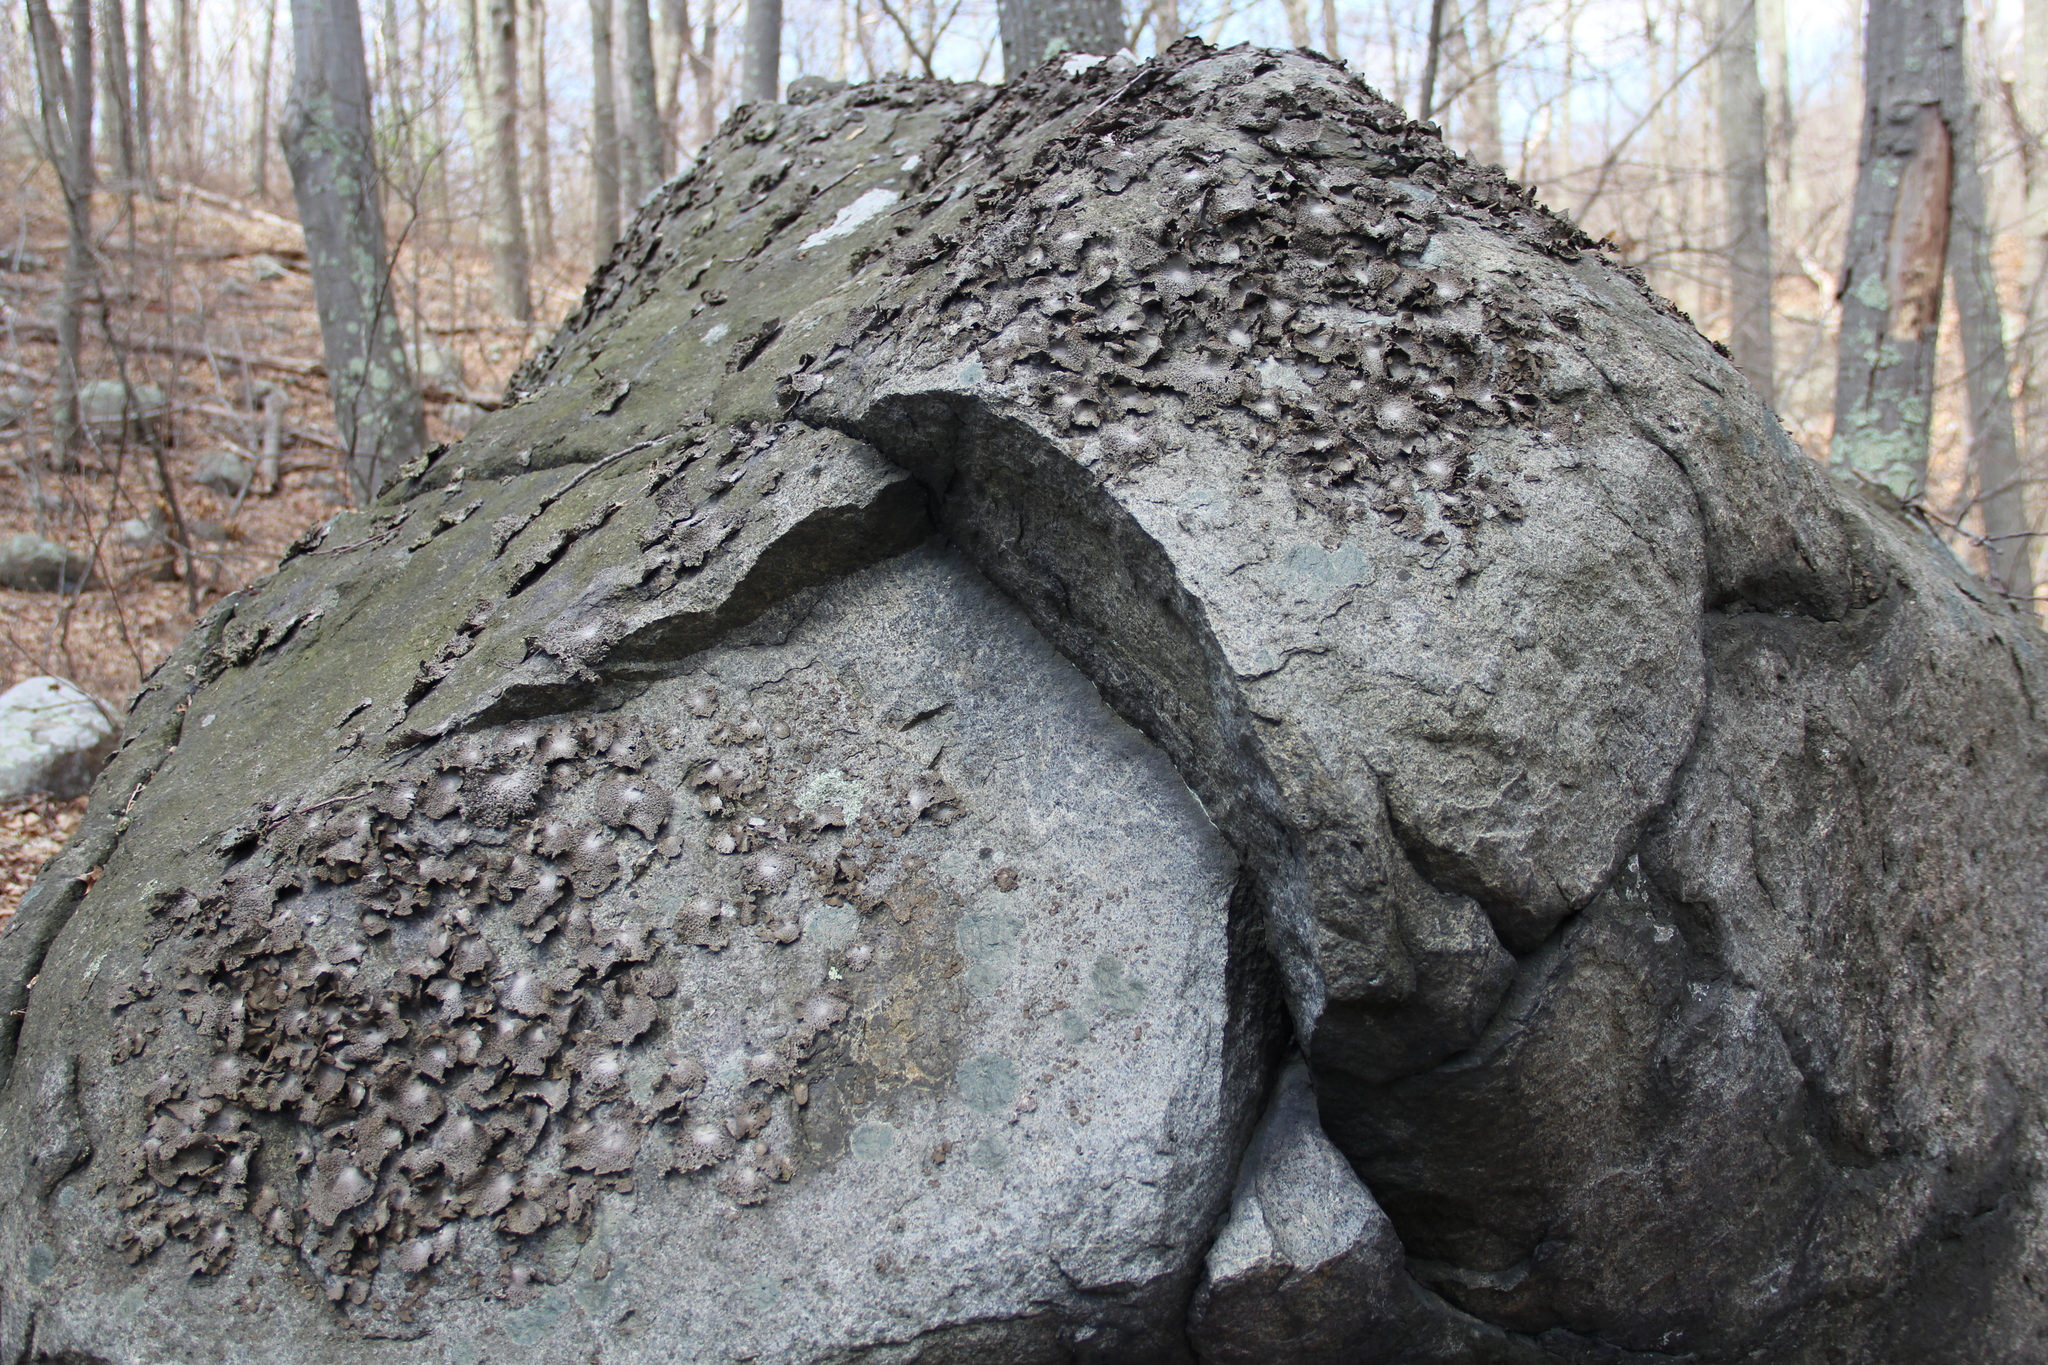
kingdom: Fungi
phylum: Ascomycota
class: Lecanoromycetes
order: Umbilicariales
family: Umbilicariaceae
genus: Lasallia
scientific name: Lasallia papulosa
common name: Common toadskin lichen
